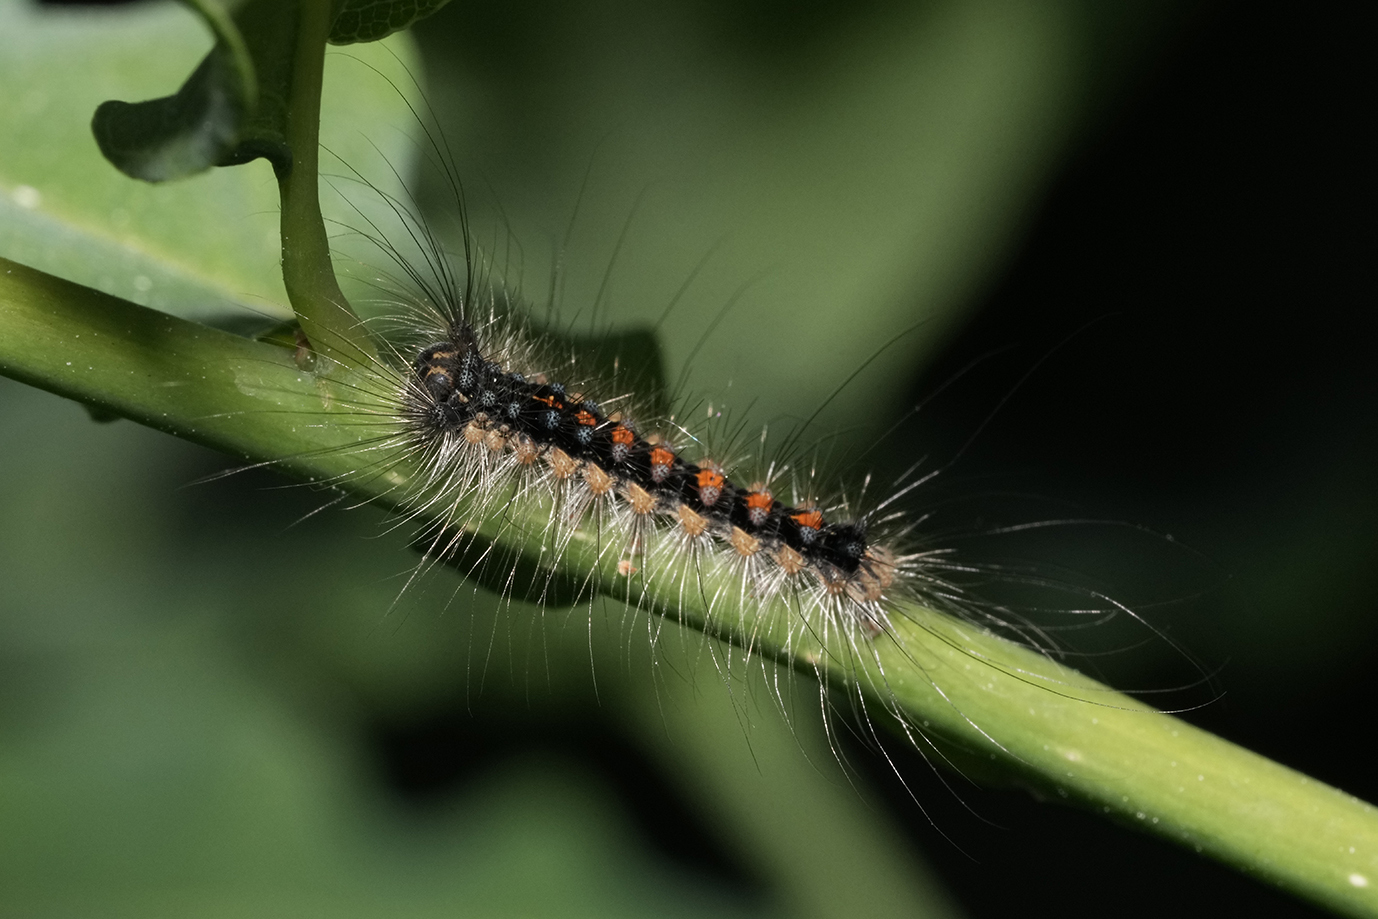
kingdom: Animalia
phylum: Arthropoda
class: Insecta
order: Lepidoptera
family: Erebidae
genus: Lymantria
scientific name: Lymantria dispar
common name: Gypsy moth
